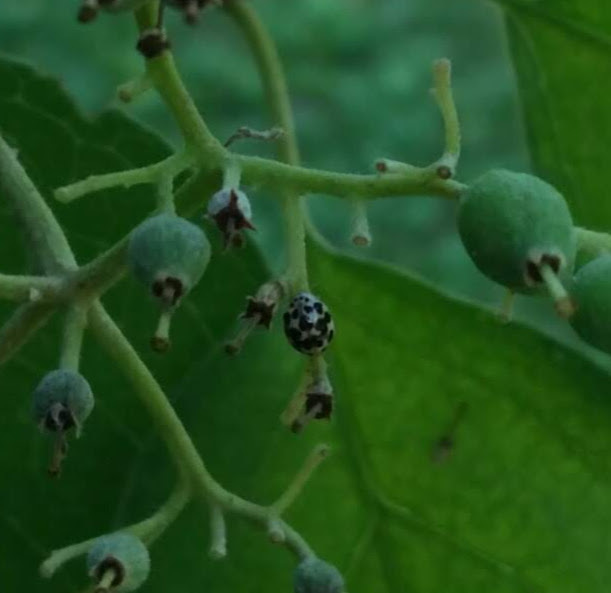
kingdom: Animalia
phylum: Arthropoda
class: Insecta
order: Coleoptera
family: Coccinellidae
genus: Psyllobora
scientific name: Psyllobora vigintimaculata
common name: Ladybird beetle
